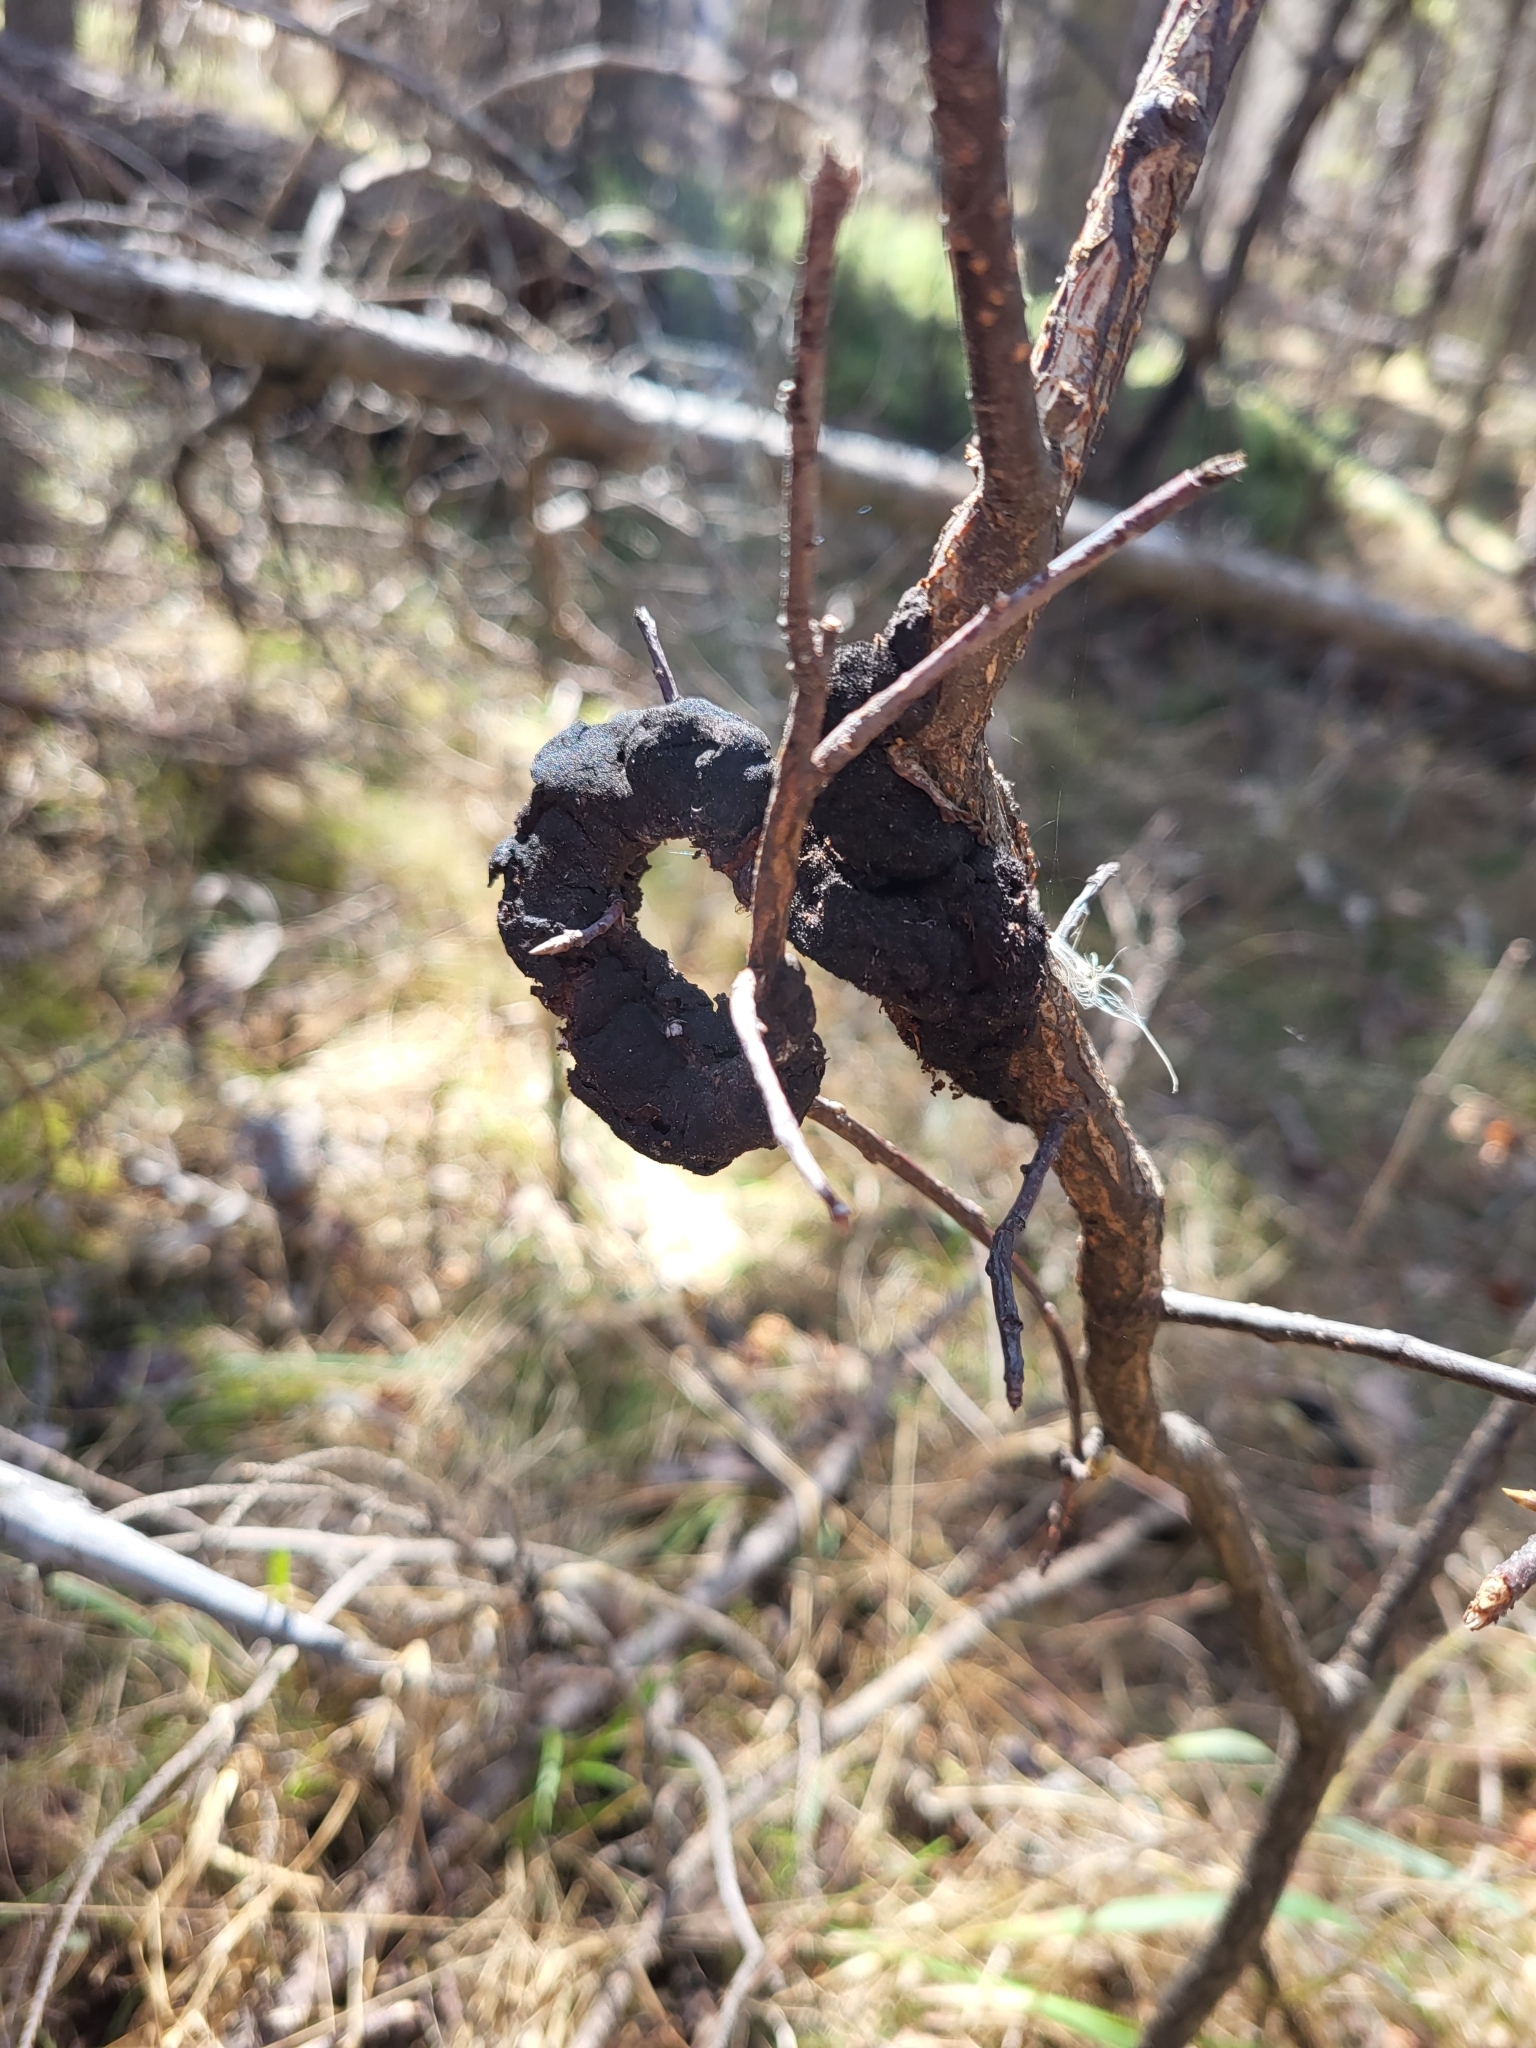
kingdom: Fungi
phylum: Ascomycota
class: Dothideomycetes
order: Venturiales
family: Venturiaceae
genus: Apiosporina
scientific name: Apiosporina morbosa
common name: Black knot
